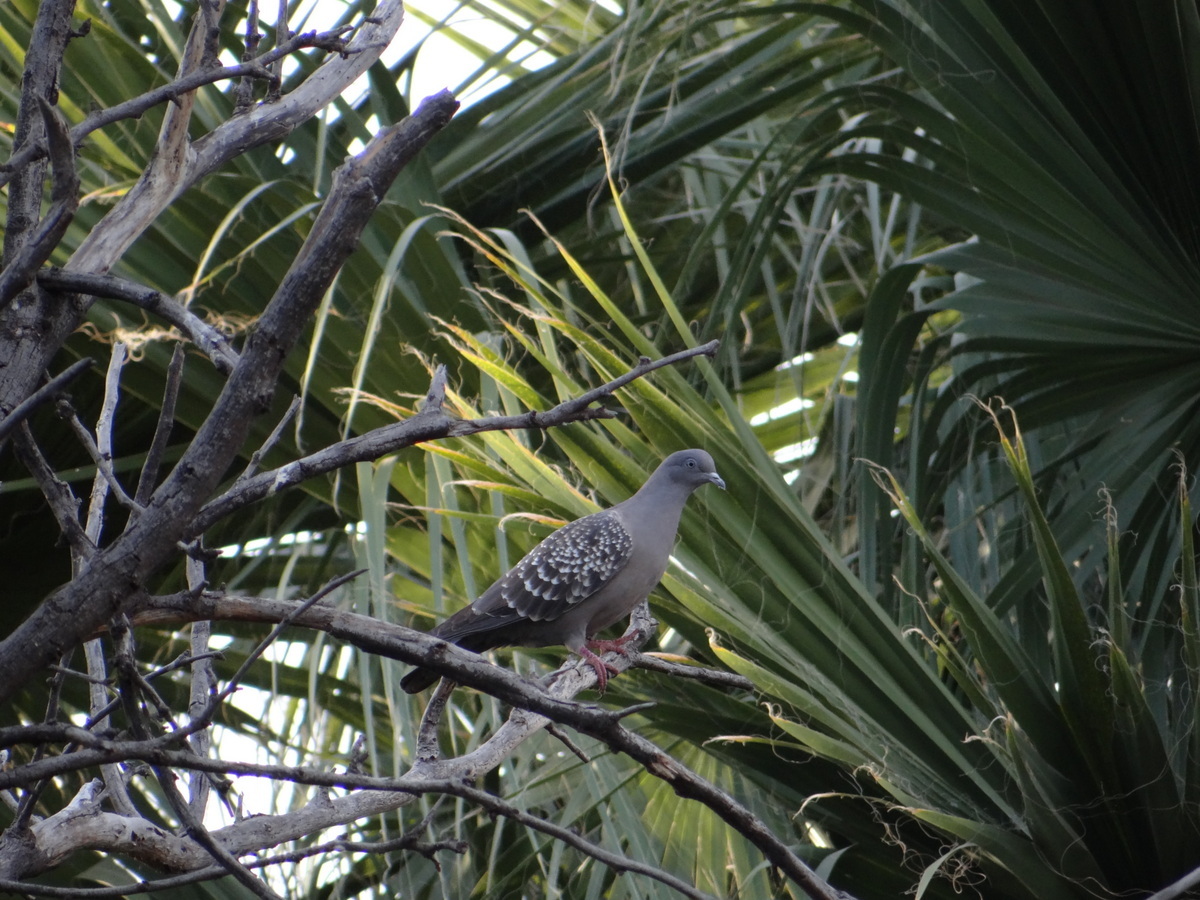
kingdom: Animalia
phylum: Chordata
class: Aves
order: Columbiformes
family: Columbidae
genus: Patagioenas
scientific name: Patagioenas maculosa
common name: Spot-winged pigeon
